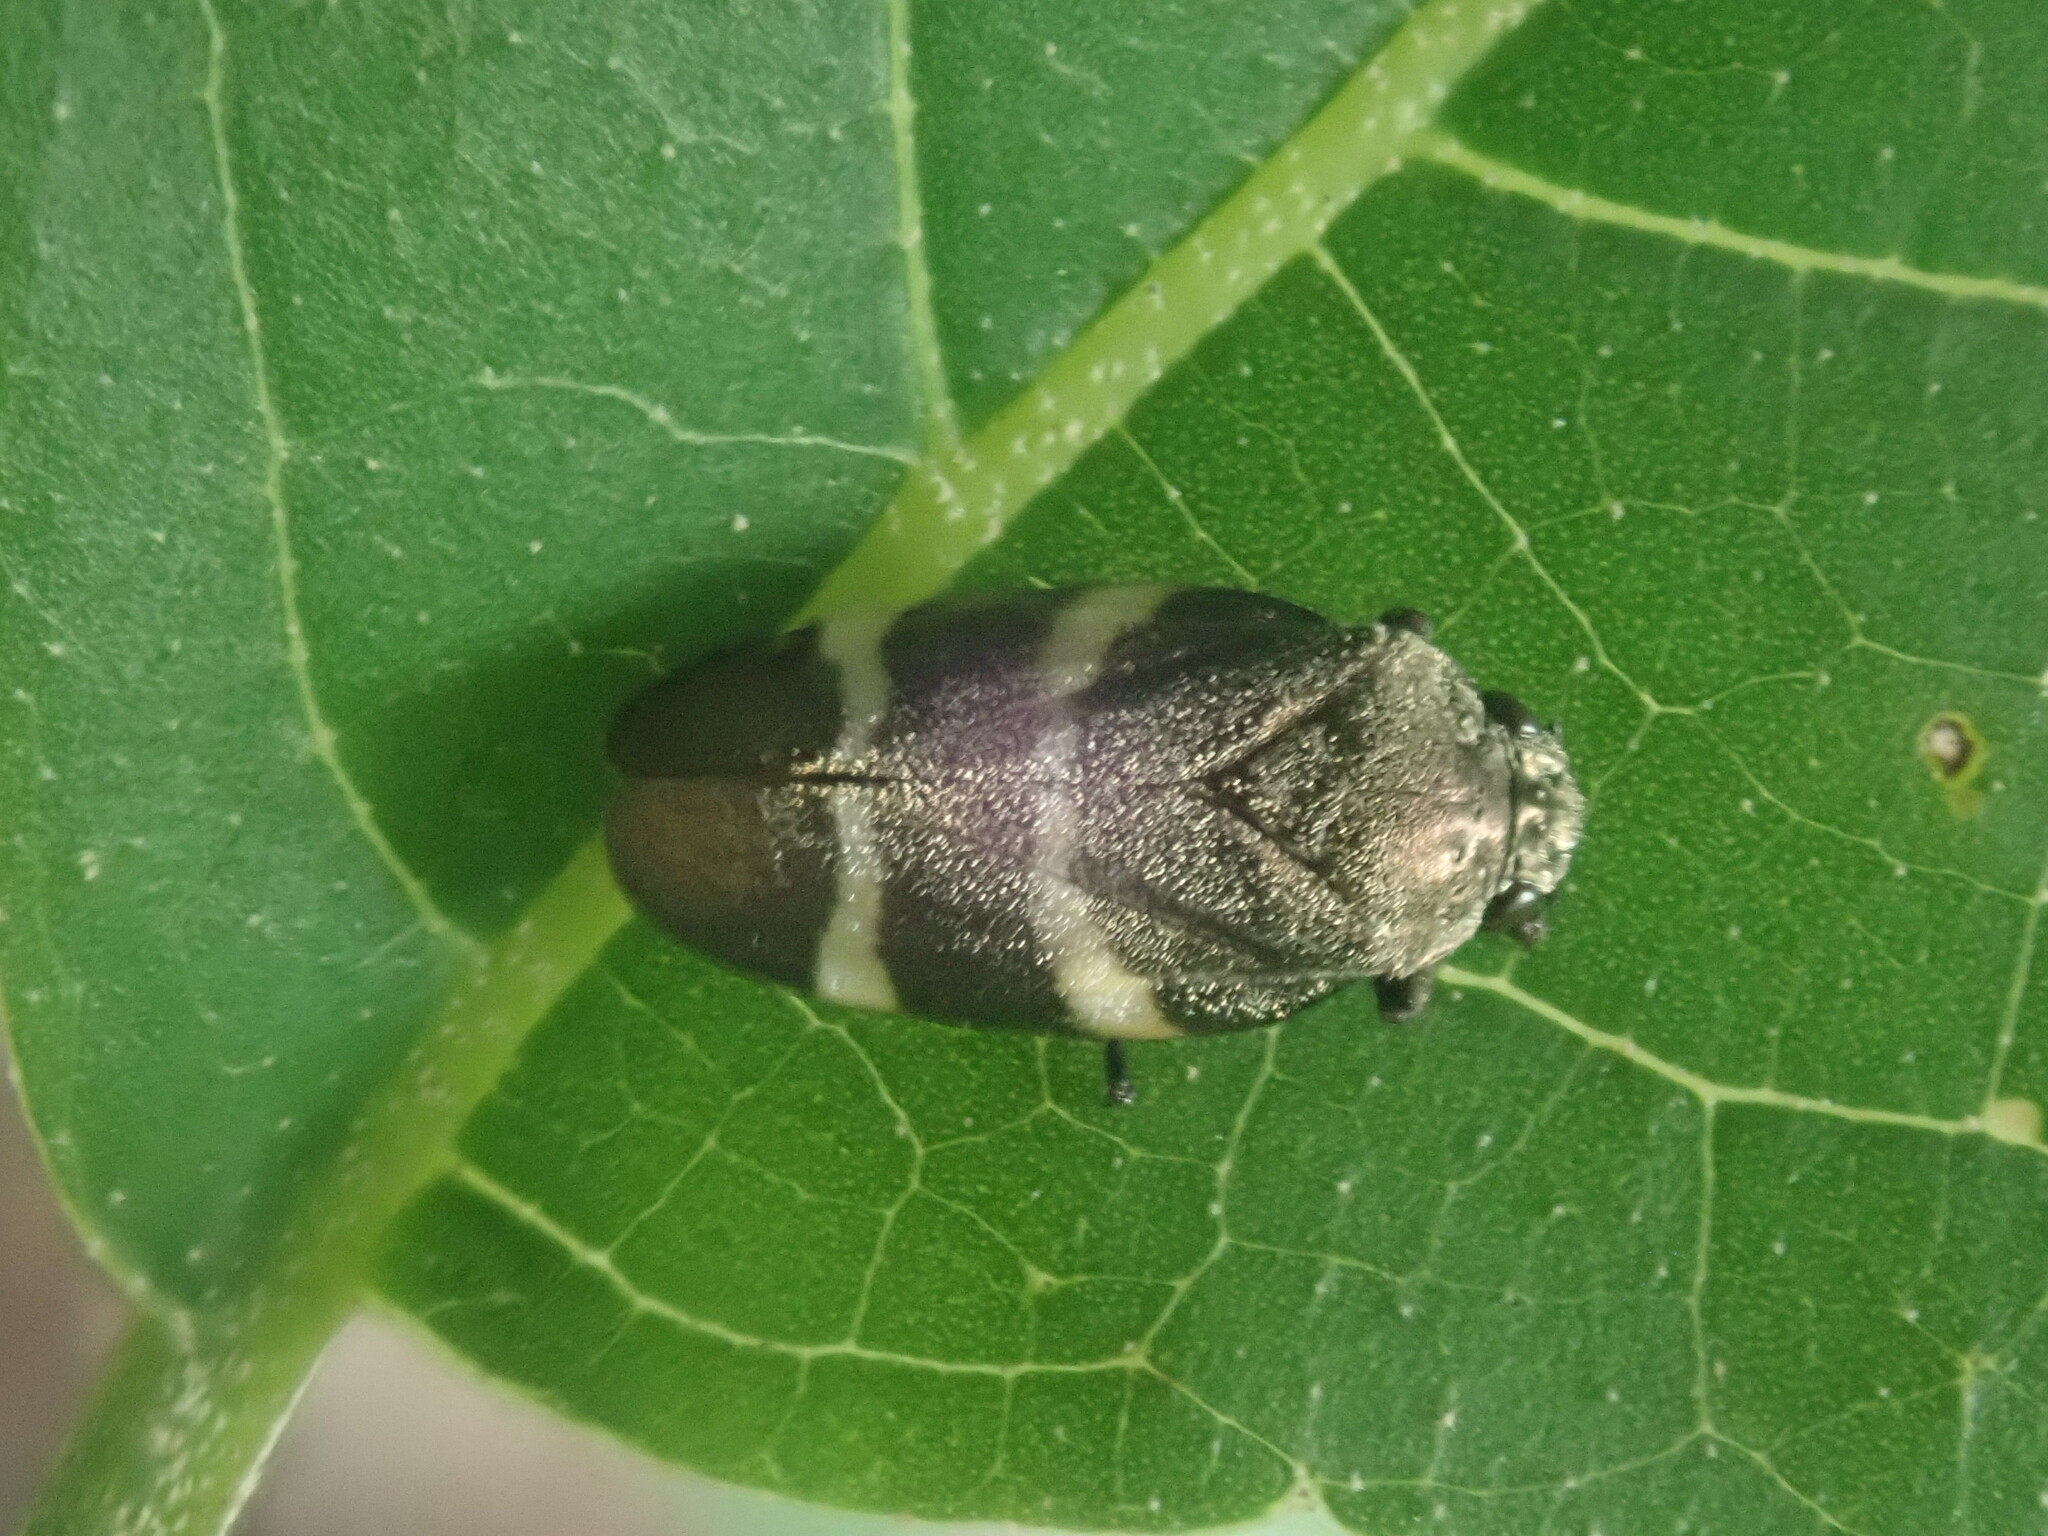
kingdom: Animalia
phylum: Arthropoda
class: Insecta
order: Hemiptera
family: Cercopidae
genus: Aeneolamia
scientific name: Aeneolamia albofasciata
